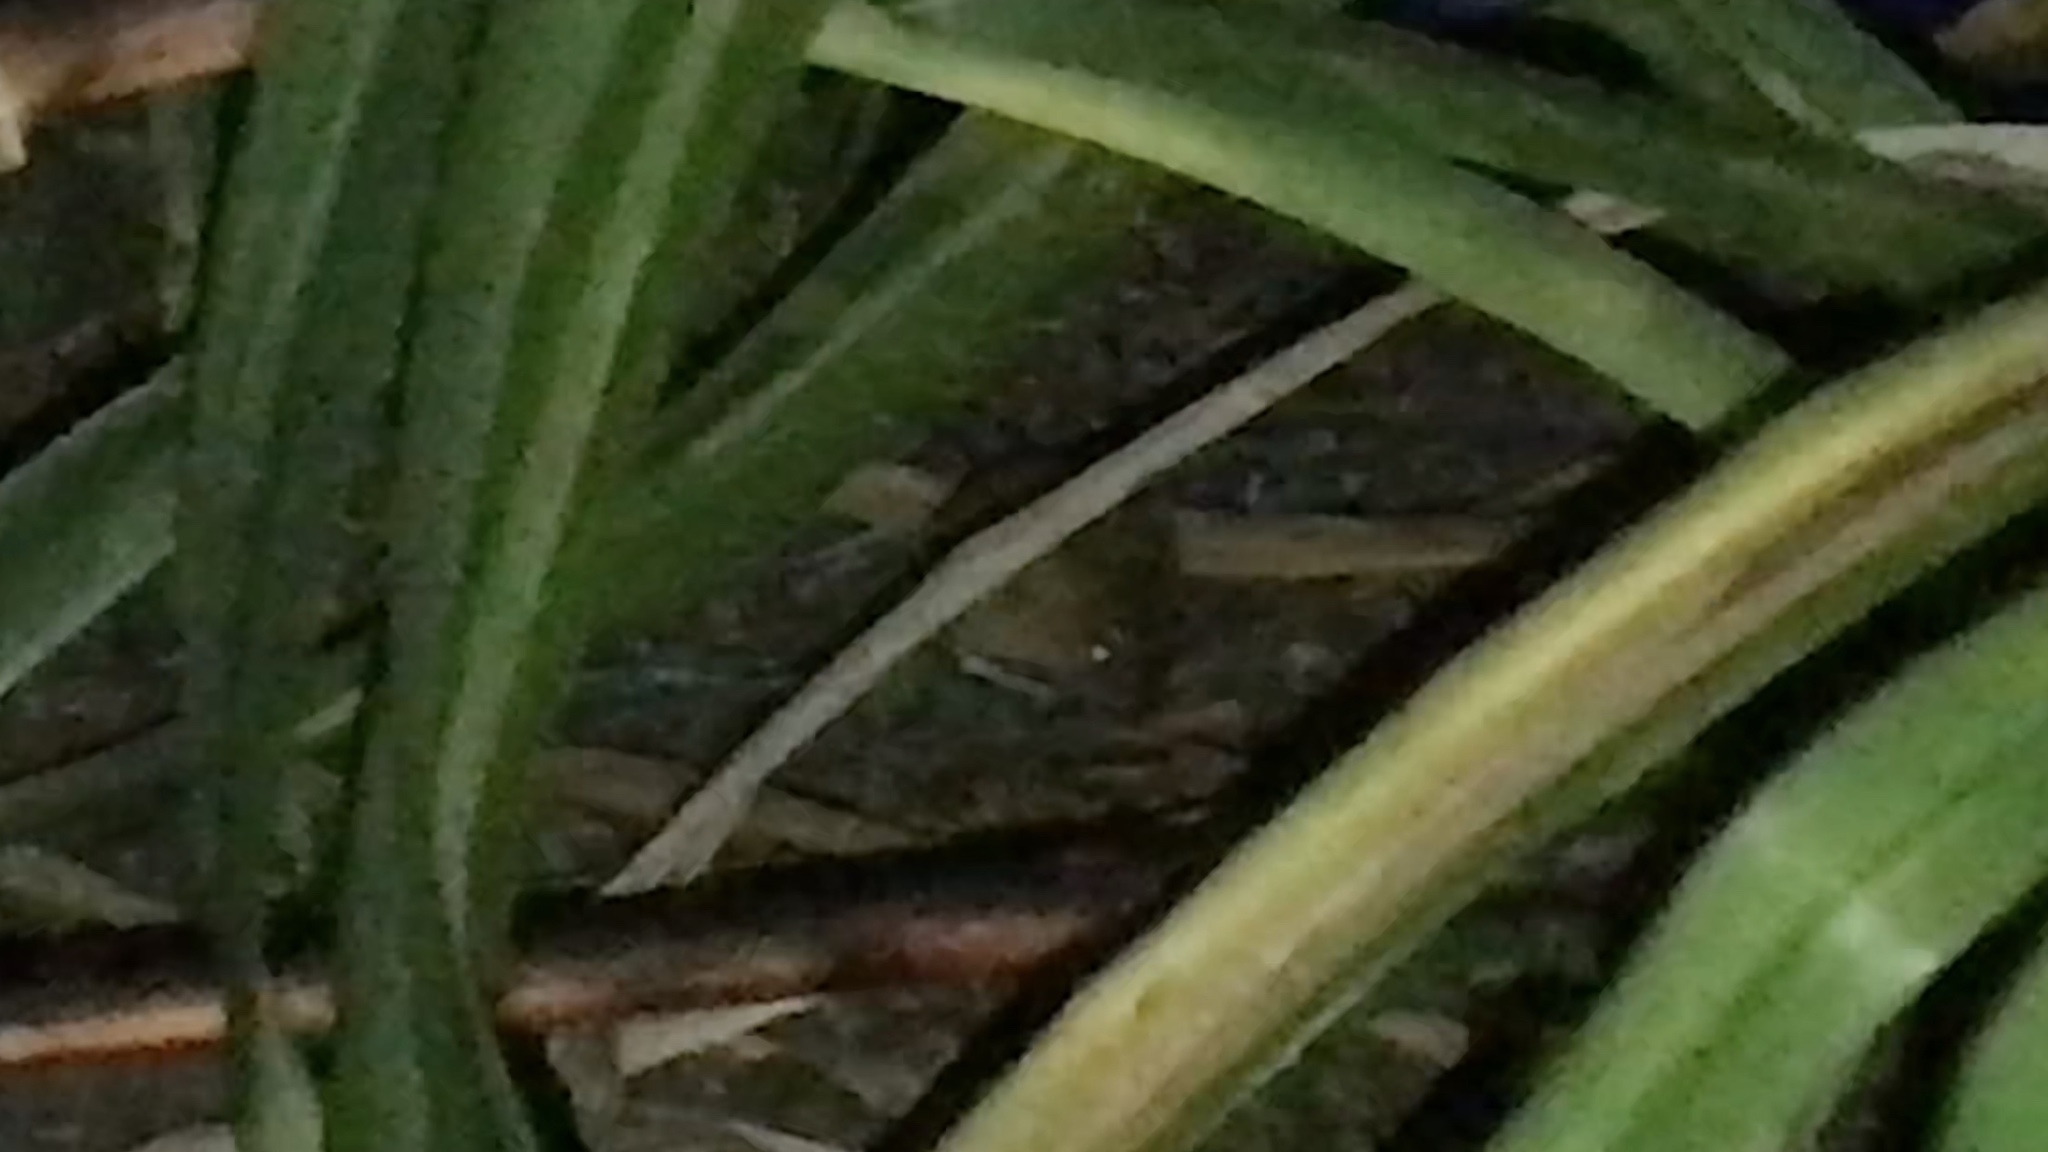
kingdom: Animalia
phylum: Chordata
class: Mammalia
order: Rodentia
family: Dipodidae
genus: Zapus
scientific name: Zapus hudsonius
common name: Meadow jumping mouse
